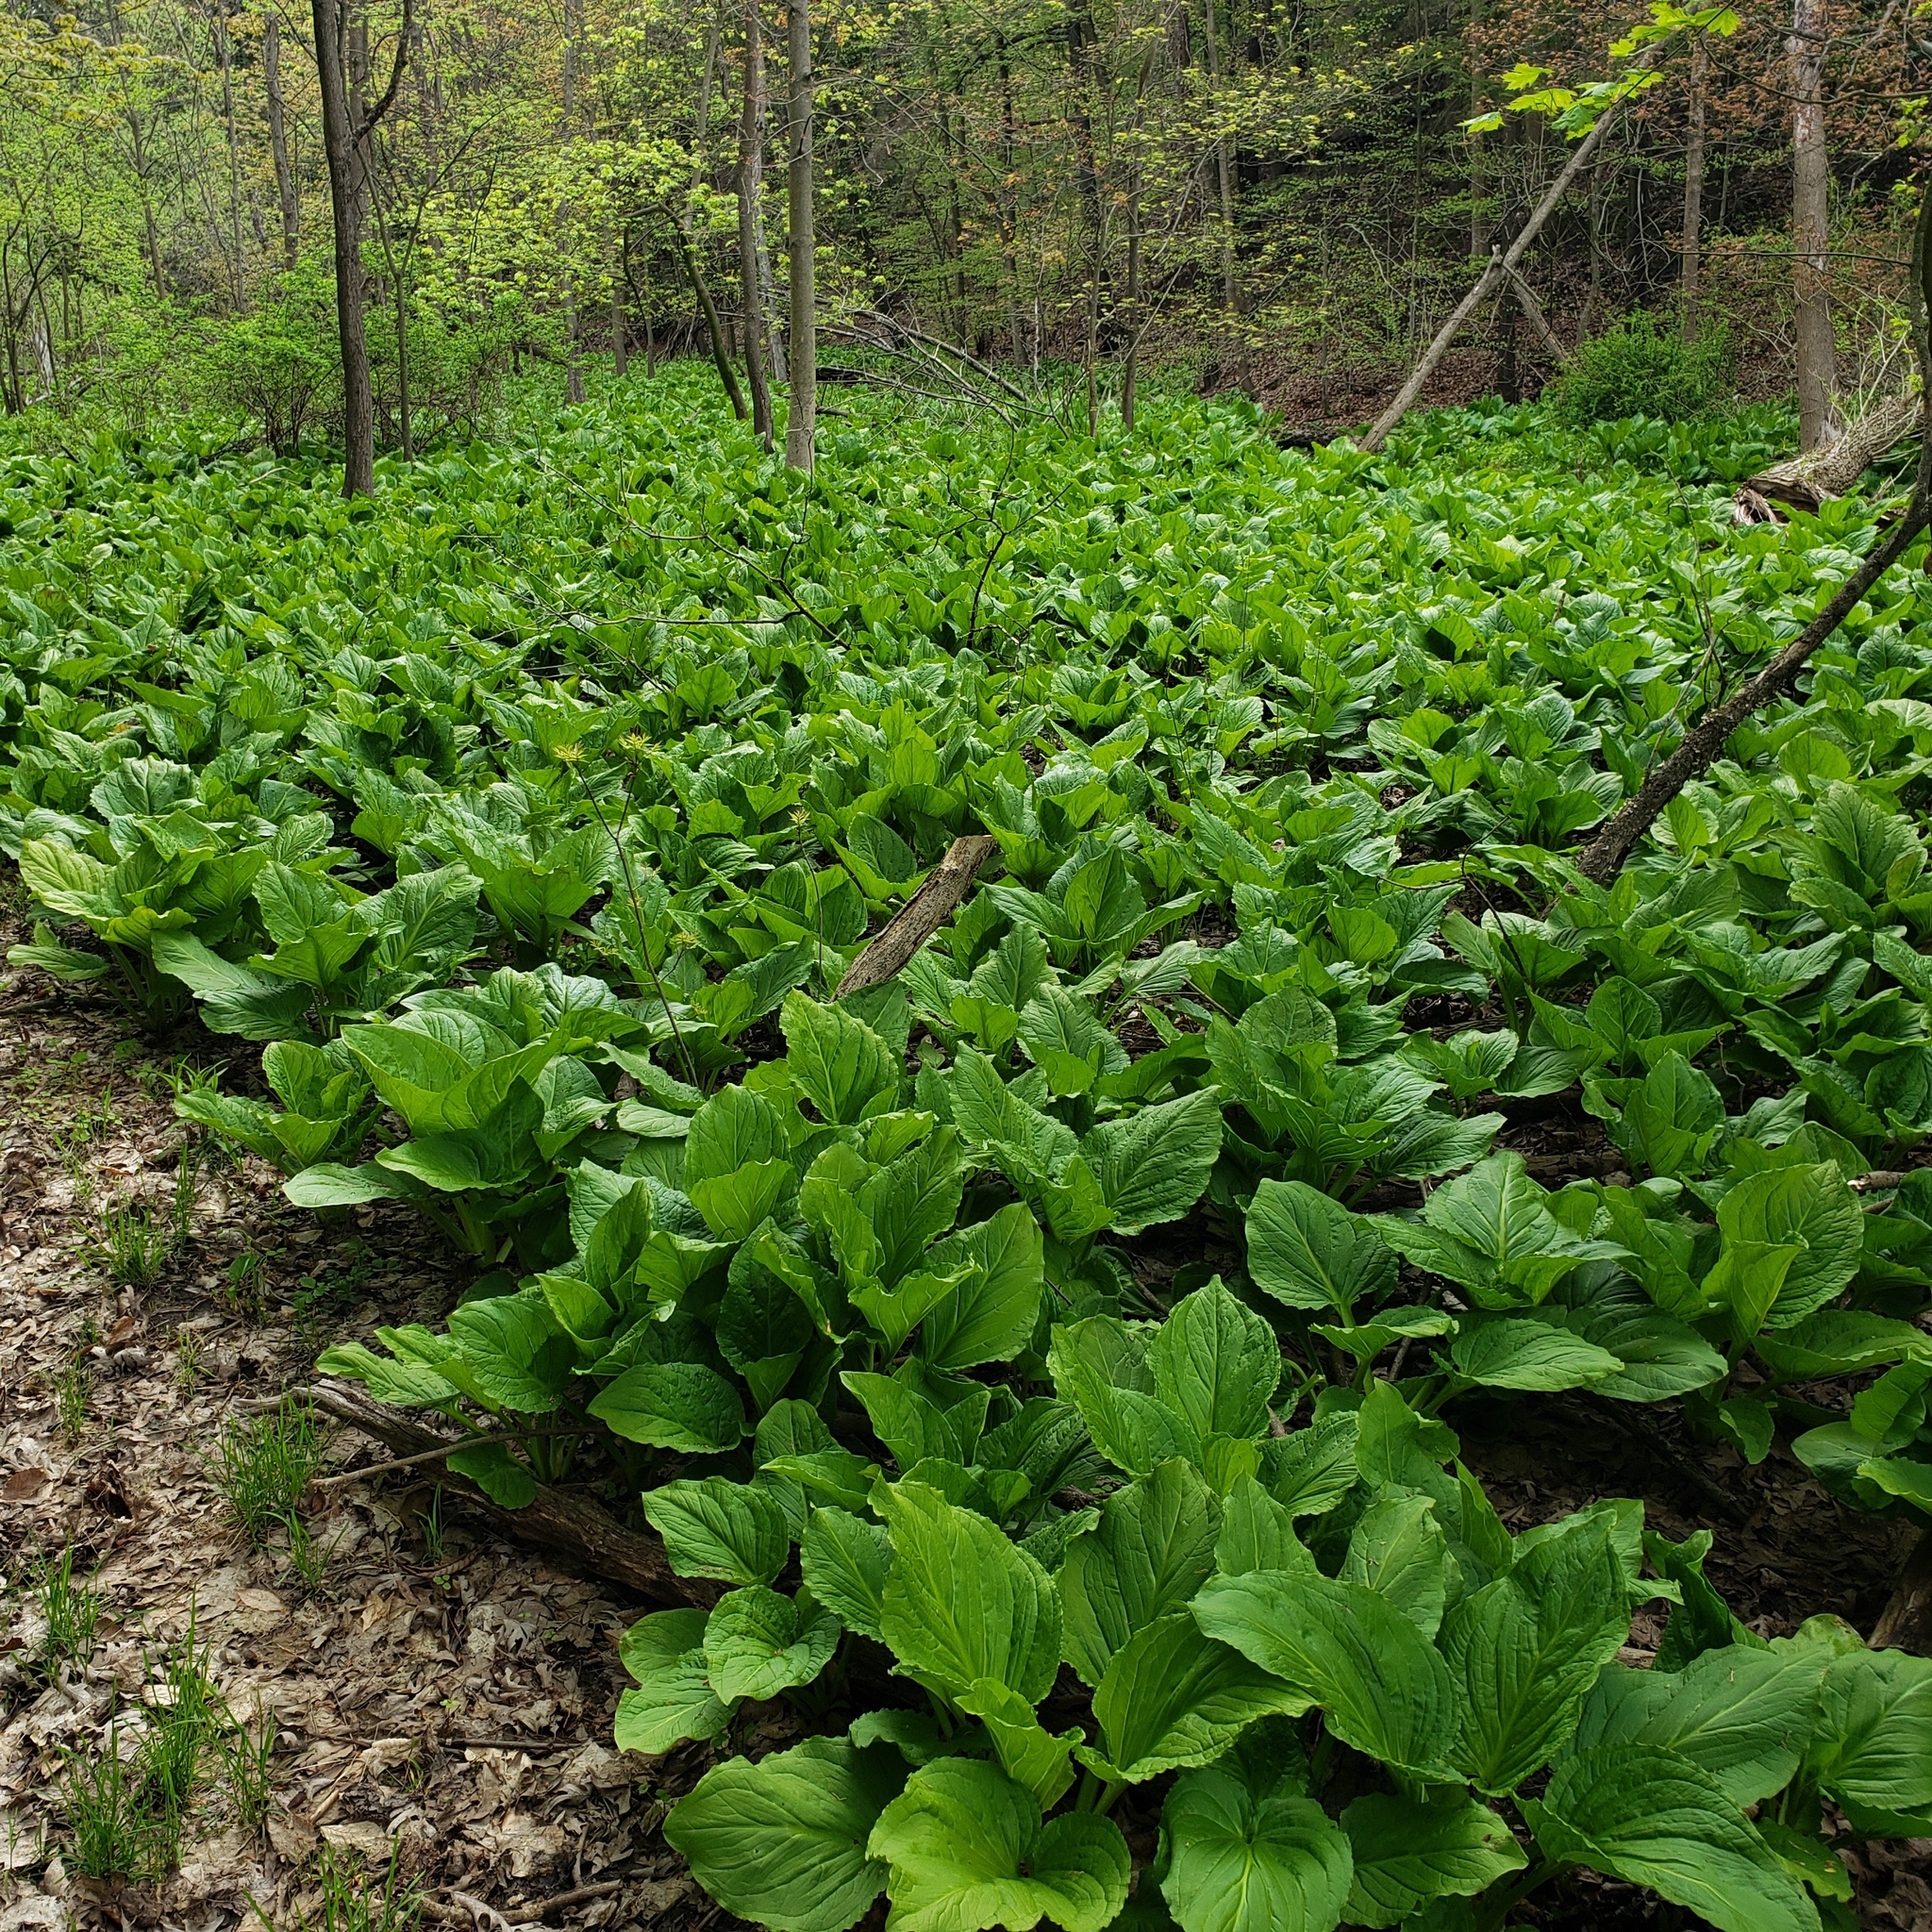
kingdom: Plantae
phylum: Tracheophyta
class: Liliopsida
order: Alismatales
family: Araceae
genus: Symplocarpus
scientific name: Symplocarpus foetidus
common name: Eastern skunk cabbage
